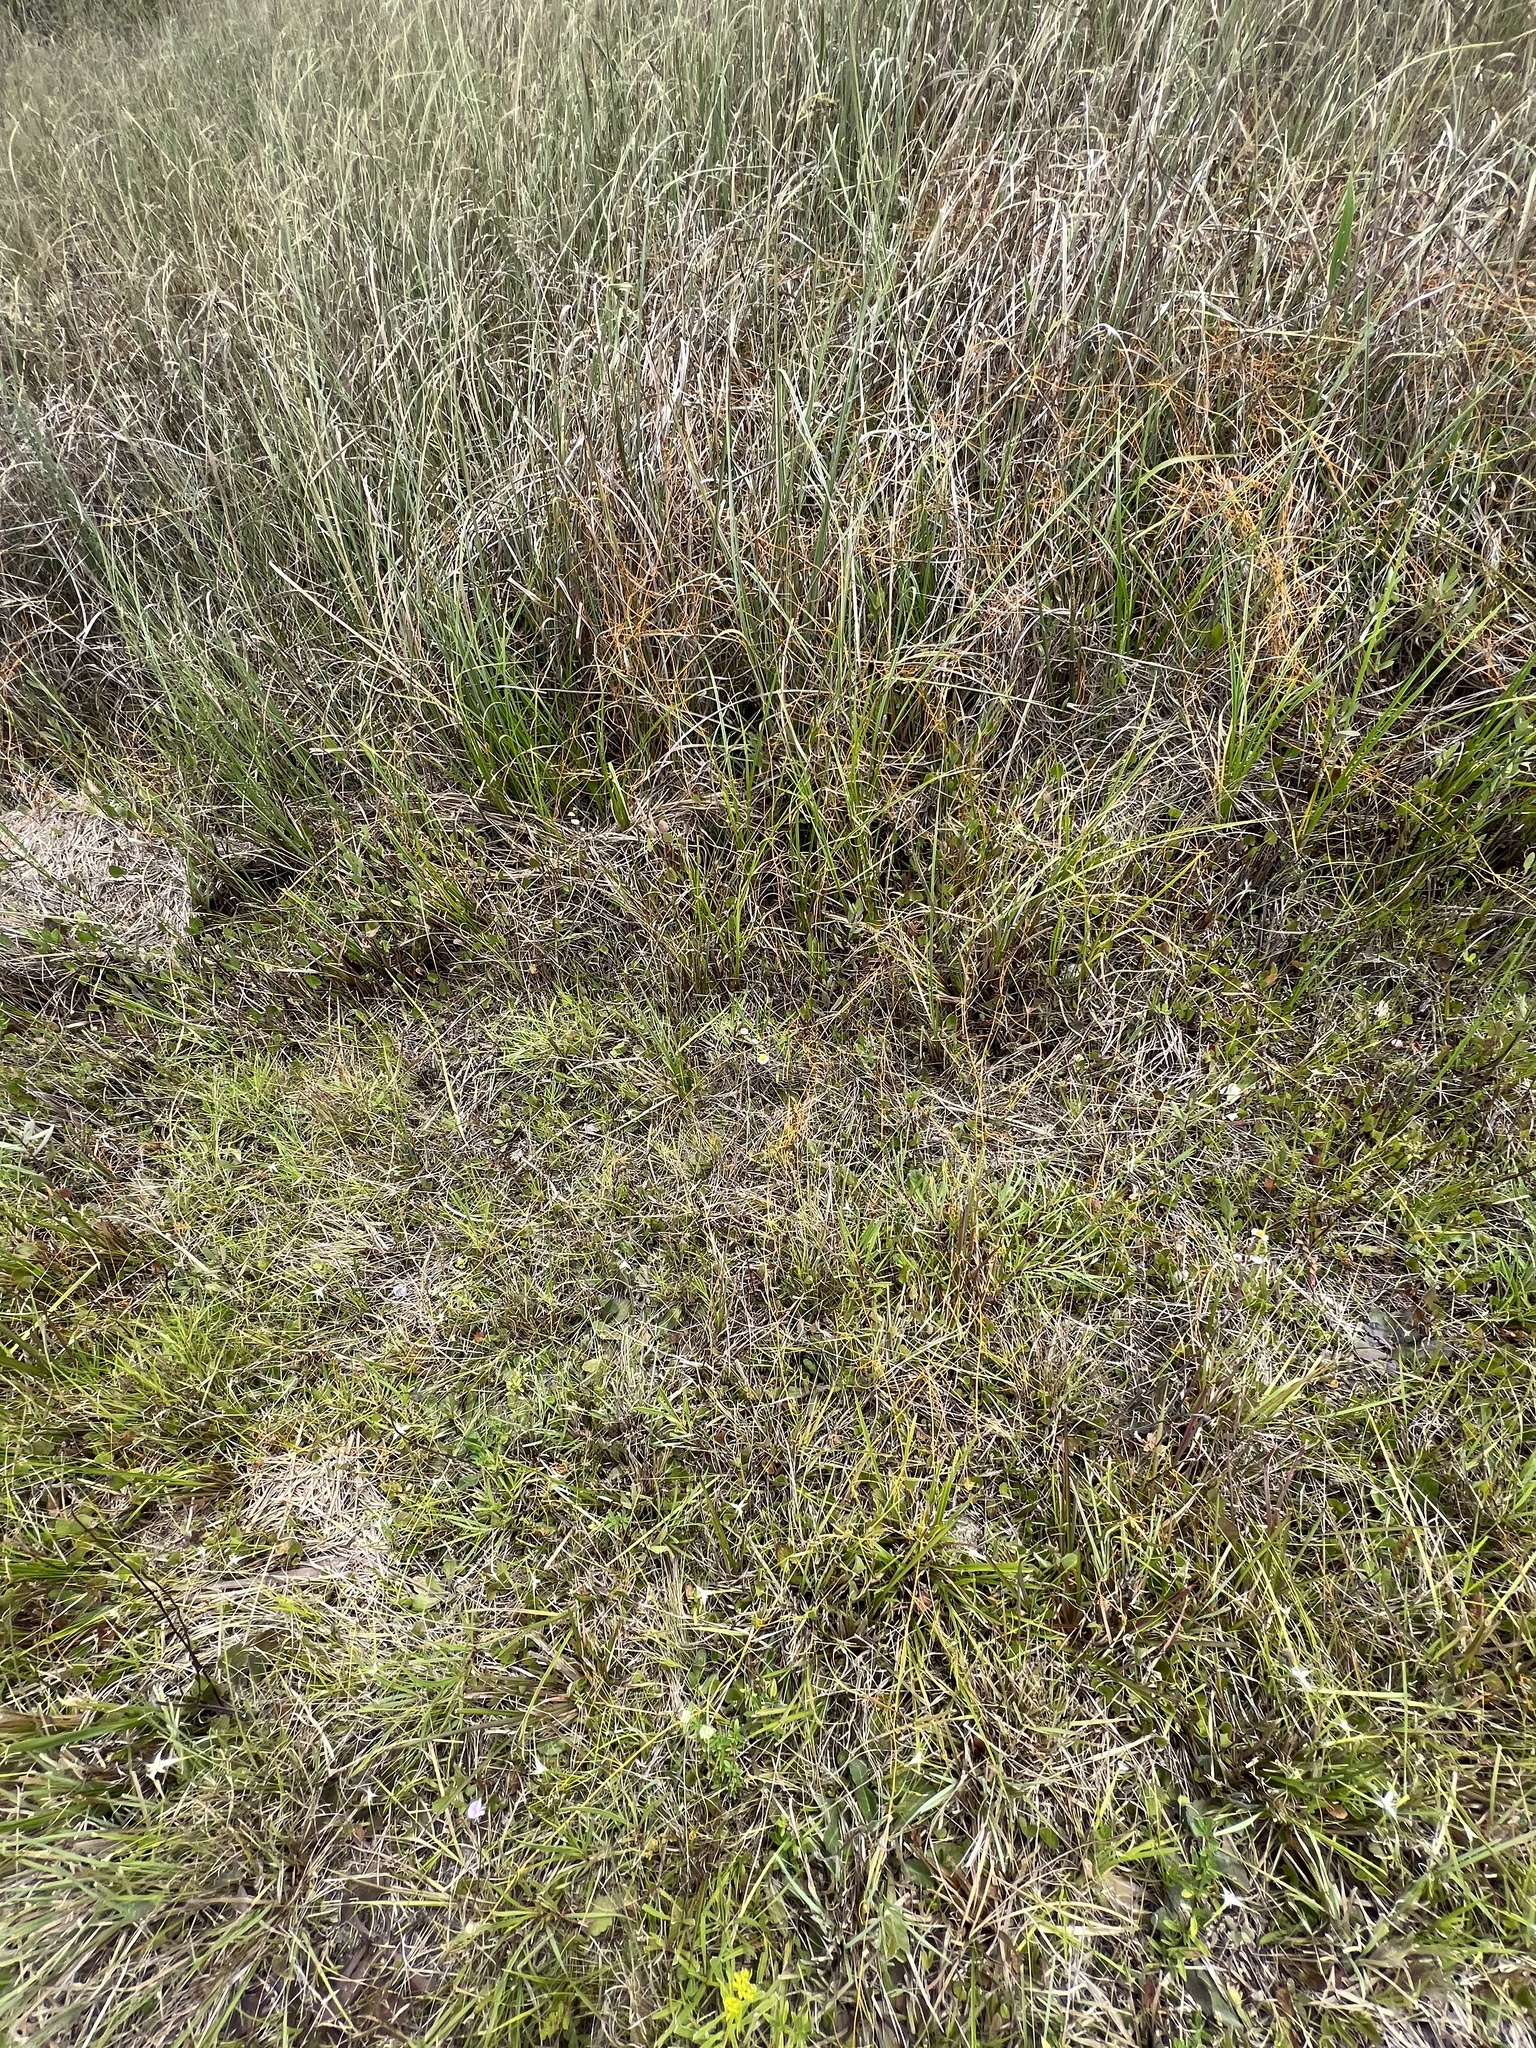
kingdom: Plantae
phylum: Tracheophyta
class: Magnoliopsida
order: Laurales
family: Lauraceae
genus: Cassytha
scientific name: Cassytha filiformis
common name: Dodder-laurel
